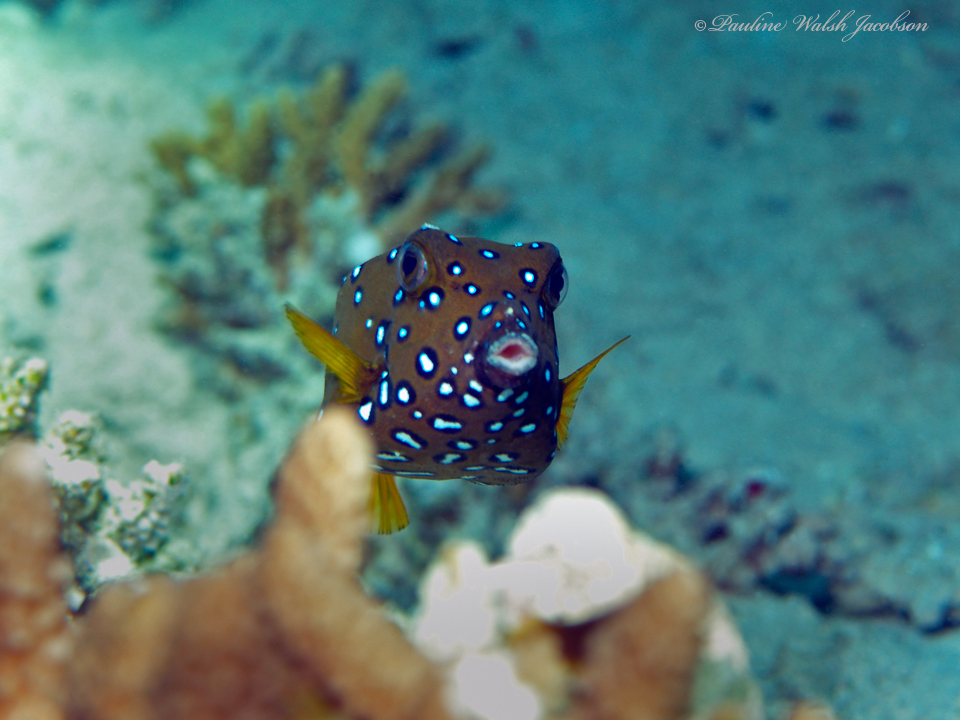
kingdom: Animalia
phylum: Chordata
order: Tetraodontiformes
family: Ostraciidae
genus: Ostracion
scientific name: Ostracion cubicus
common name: Cube trunkfish
